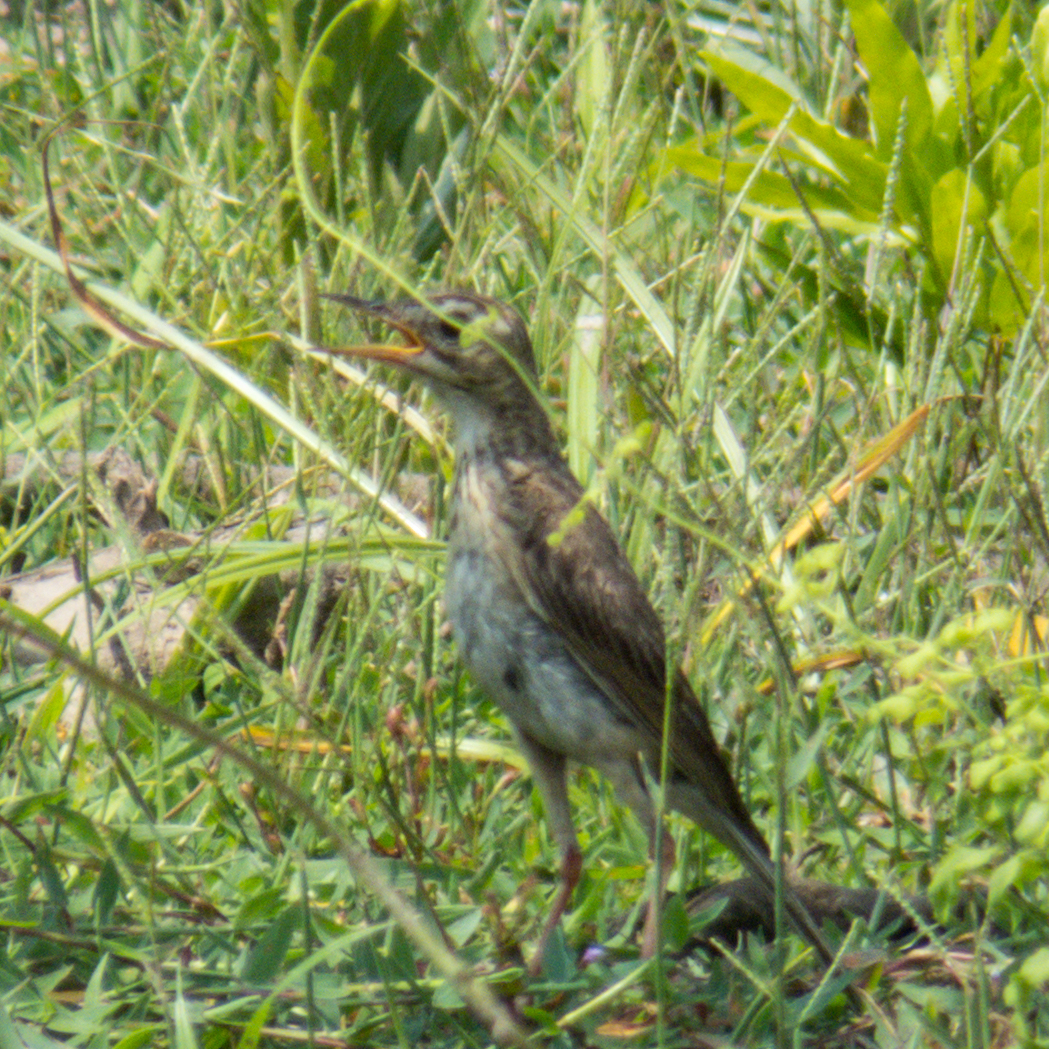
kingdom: Animalia
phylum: Chordata
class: Aves
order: Passeriformes
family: Motacillidae
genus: Anthus
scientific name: Anthus rufulus
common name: Paddyfield pipit
